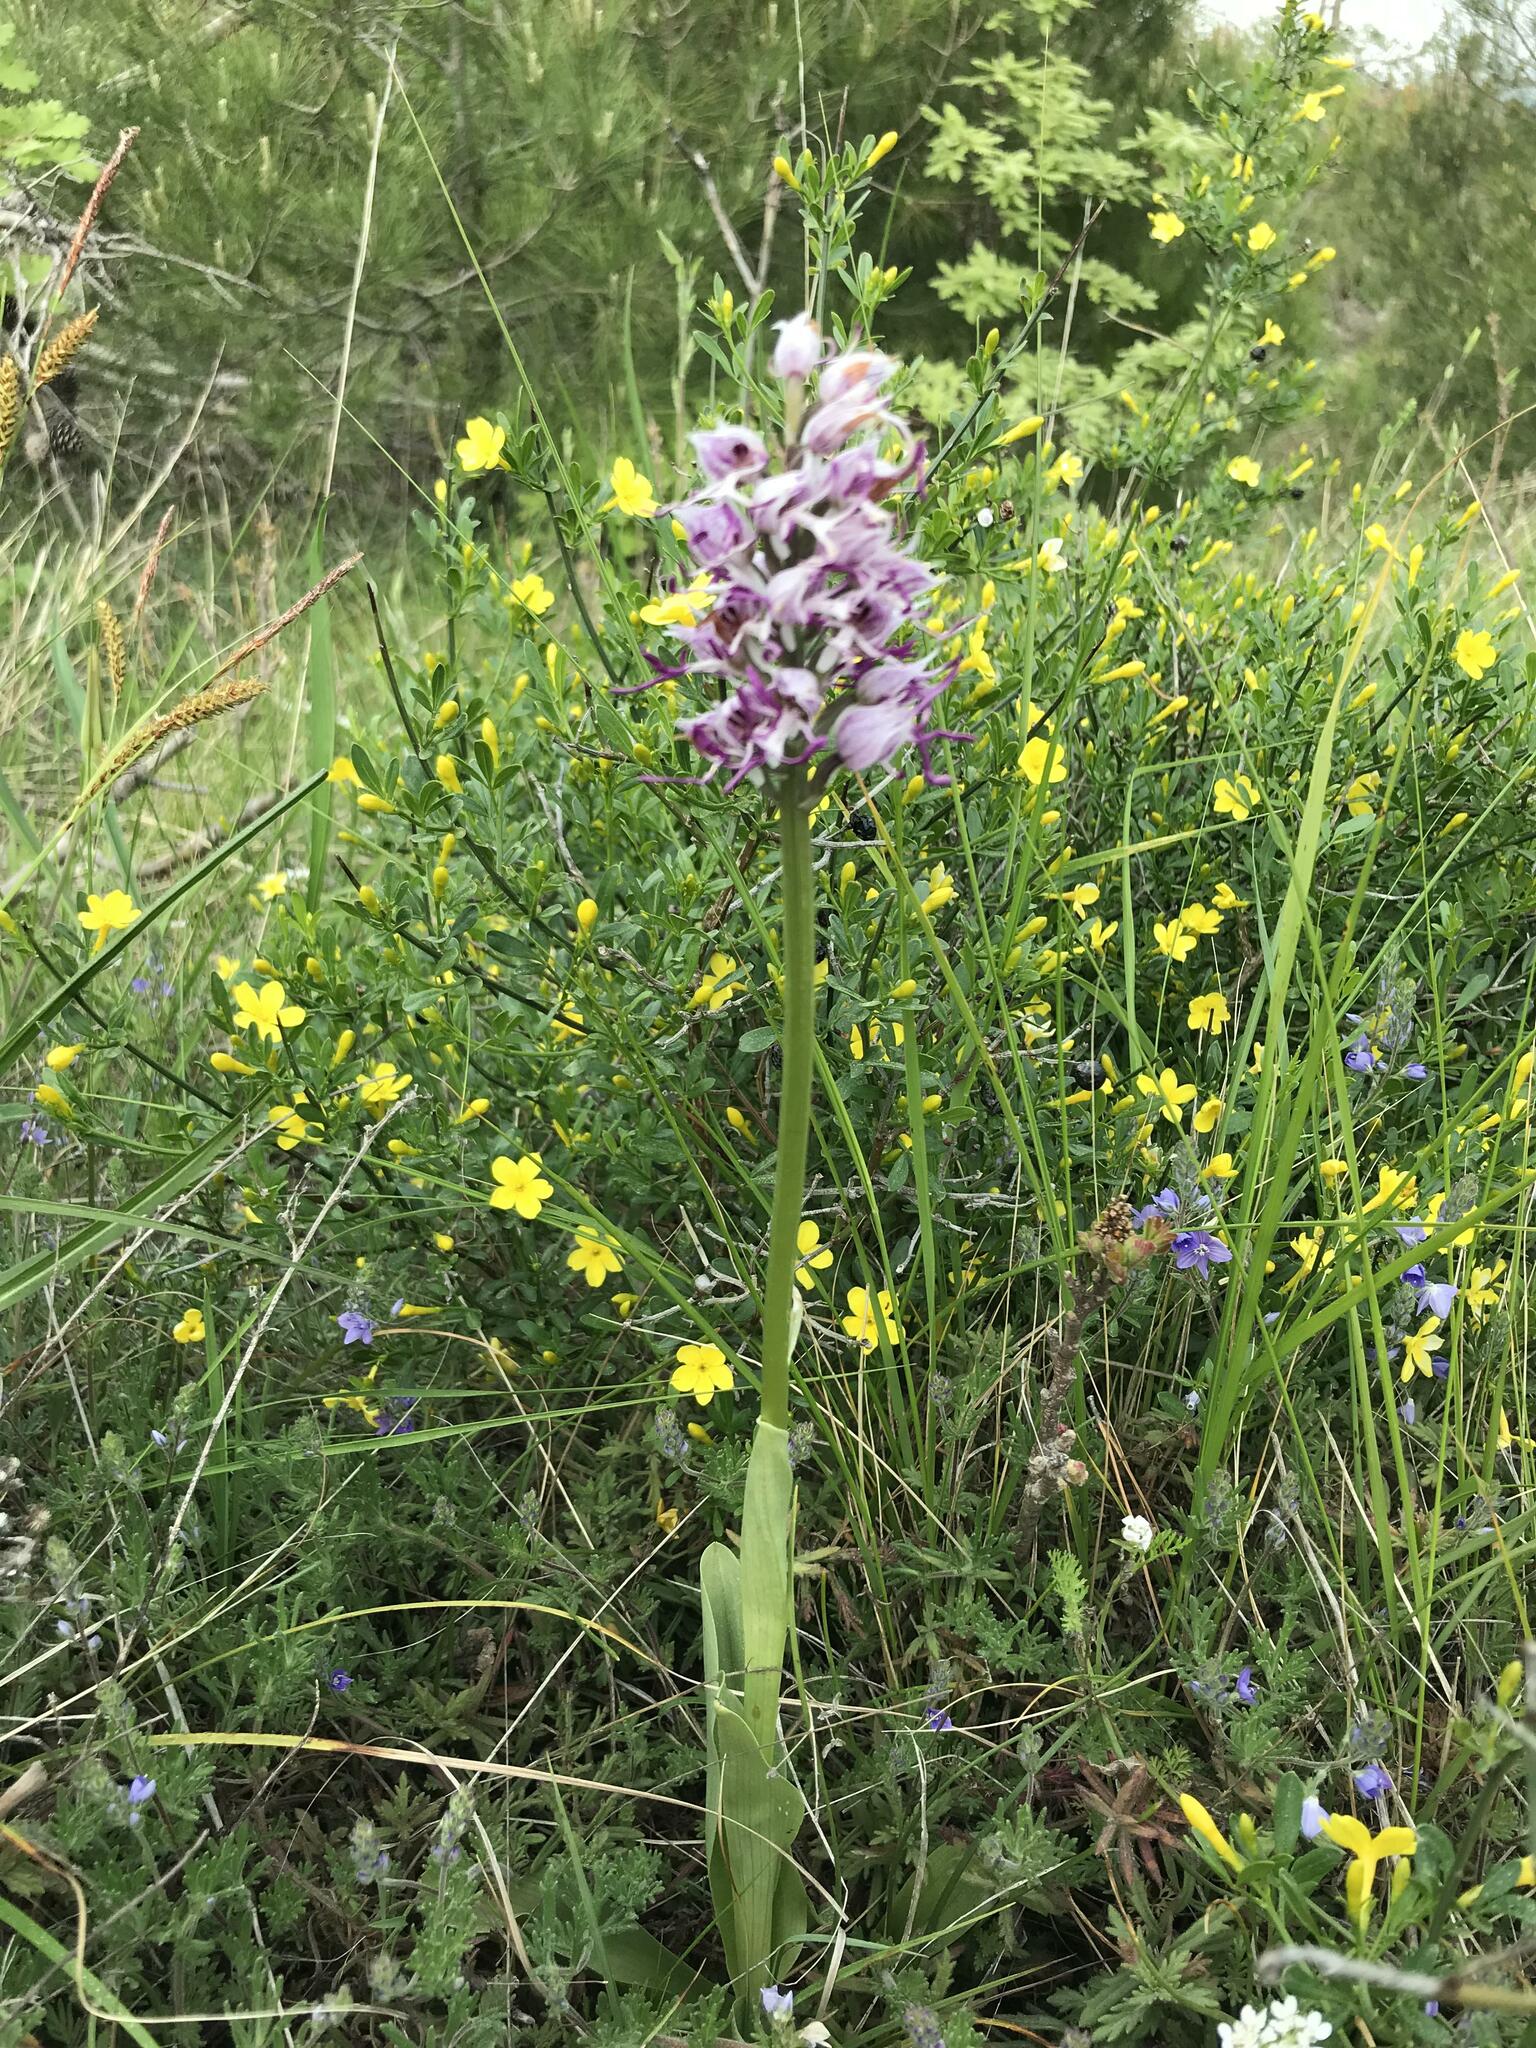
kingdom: Plantae
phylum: Tracheophyta
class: Liliopsida
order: Asparagales
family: Orchidaceae
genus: Orchis
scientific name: Orchis simia
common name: Monkey orchid
